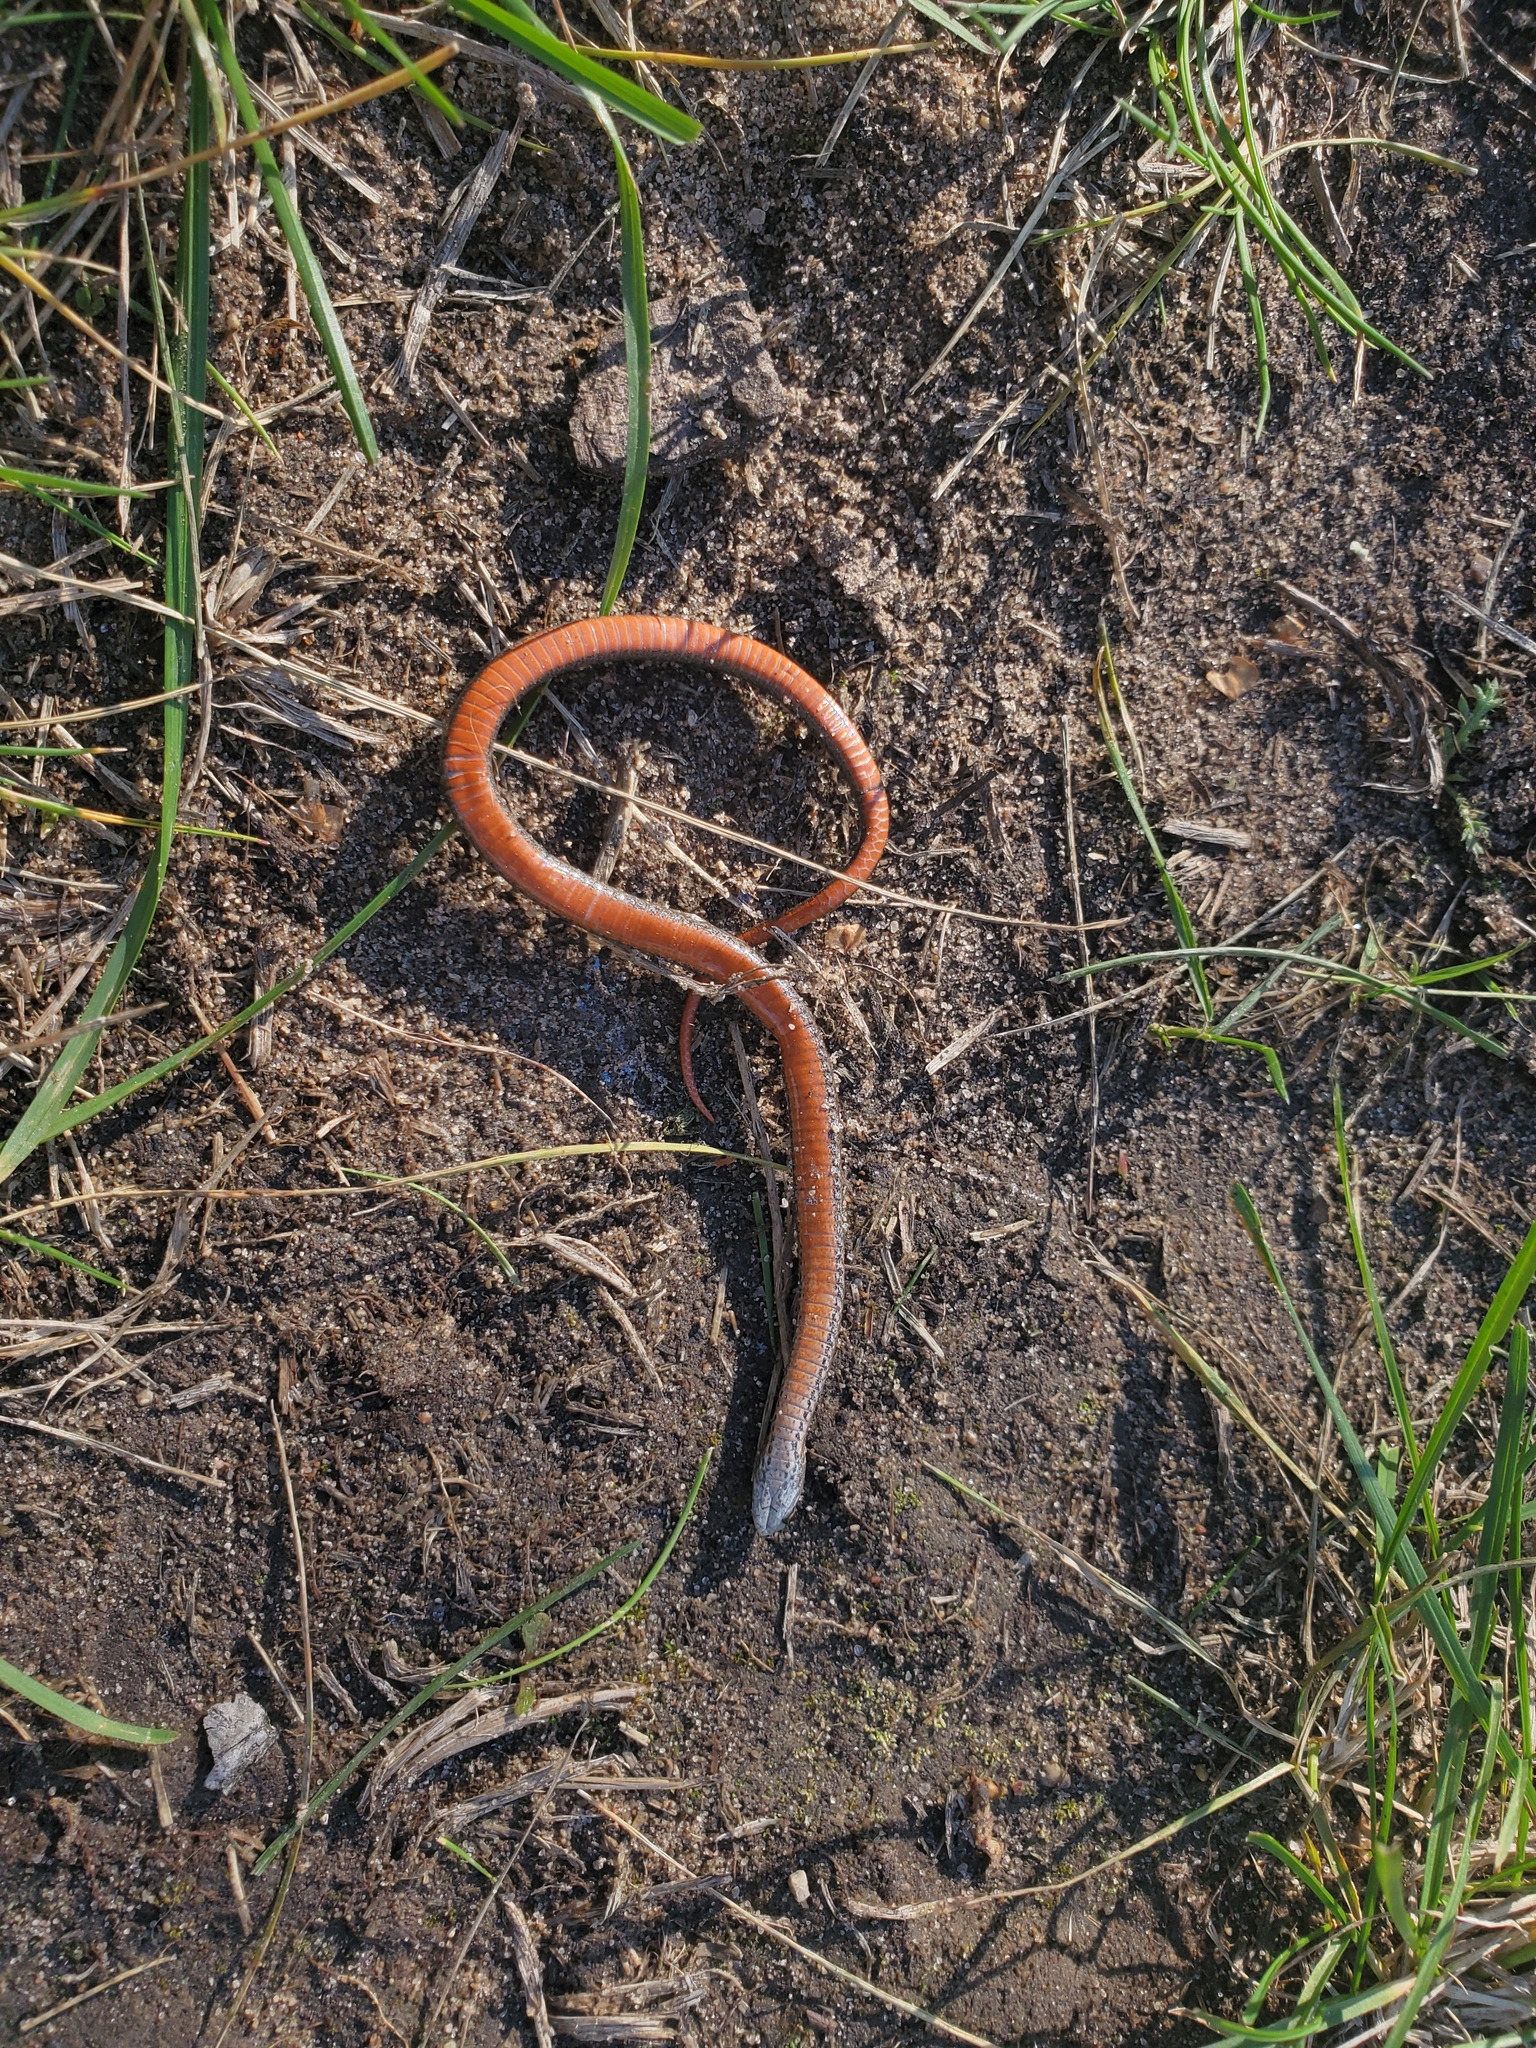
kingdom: Animalia
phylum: Chordata
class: Squamata
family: Colubridae
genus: Storeria
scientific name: Storeria occipitomaculata
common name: Redbelly snake
